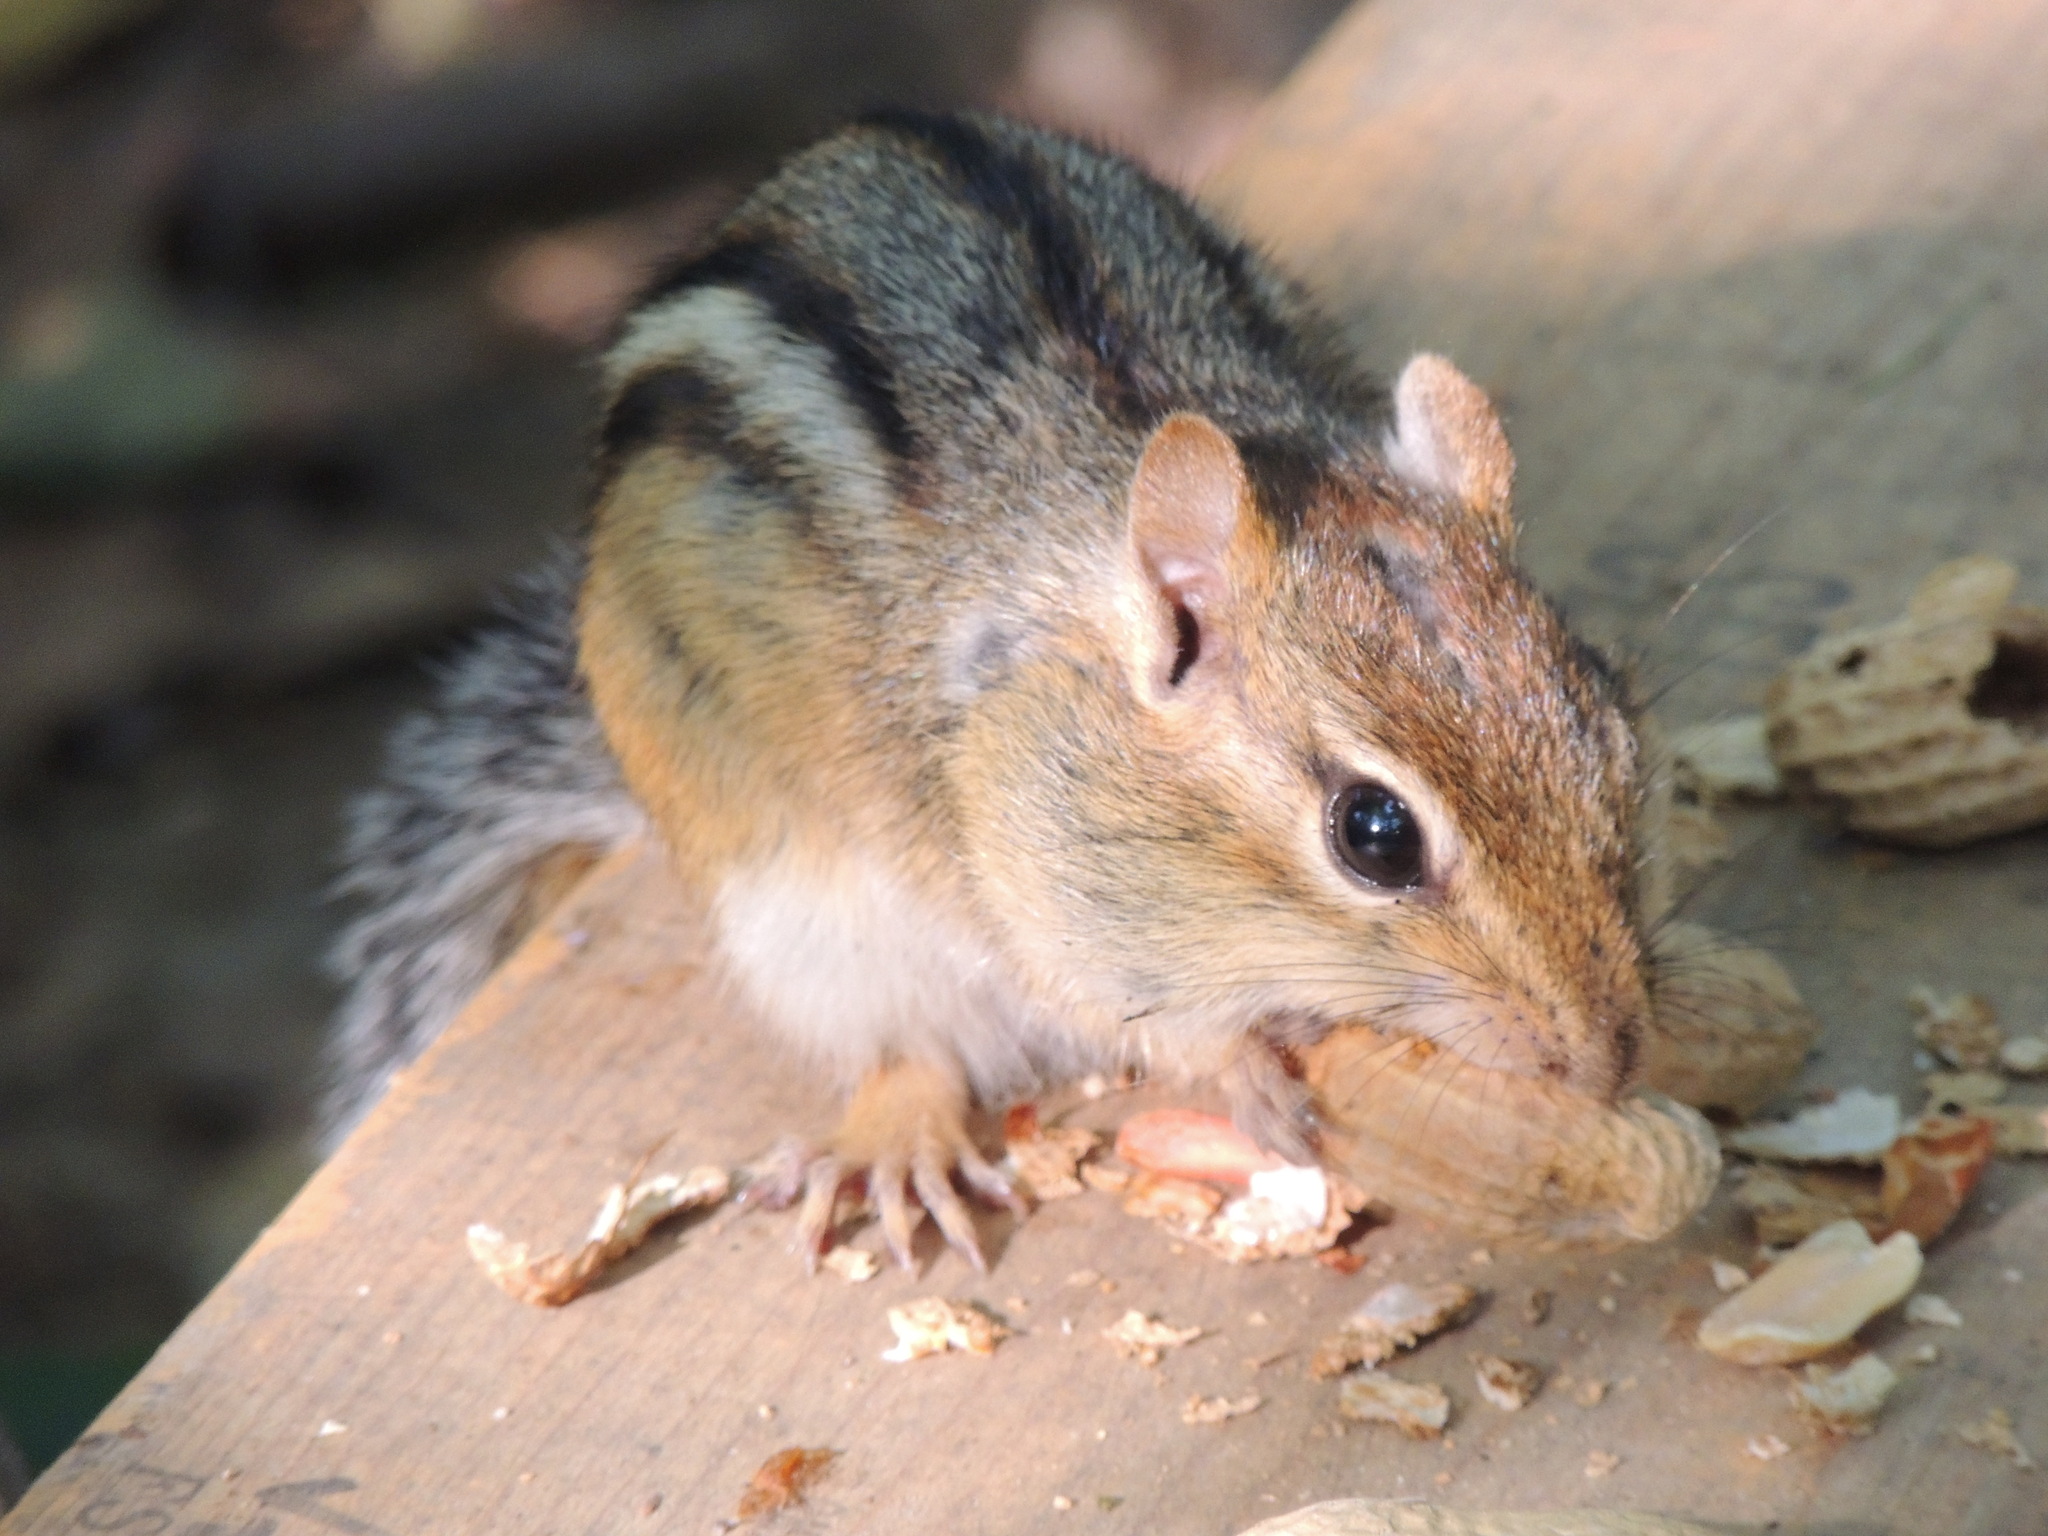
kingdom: Animalia
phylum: Chordata
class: Mammalia
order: Rodentia
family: Sciuridae
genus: Tamias
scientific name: Tamias striatus
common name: Eastern chipmunk
